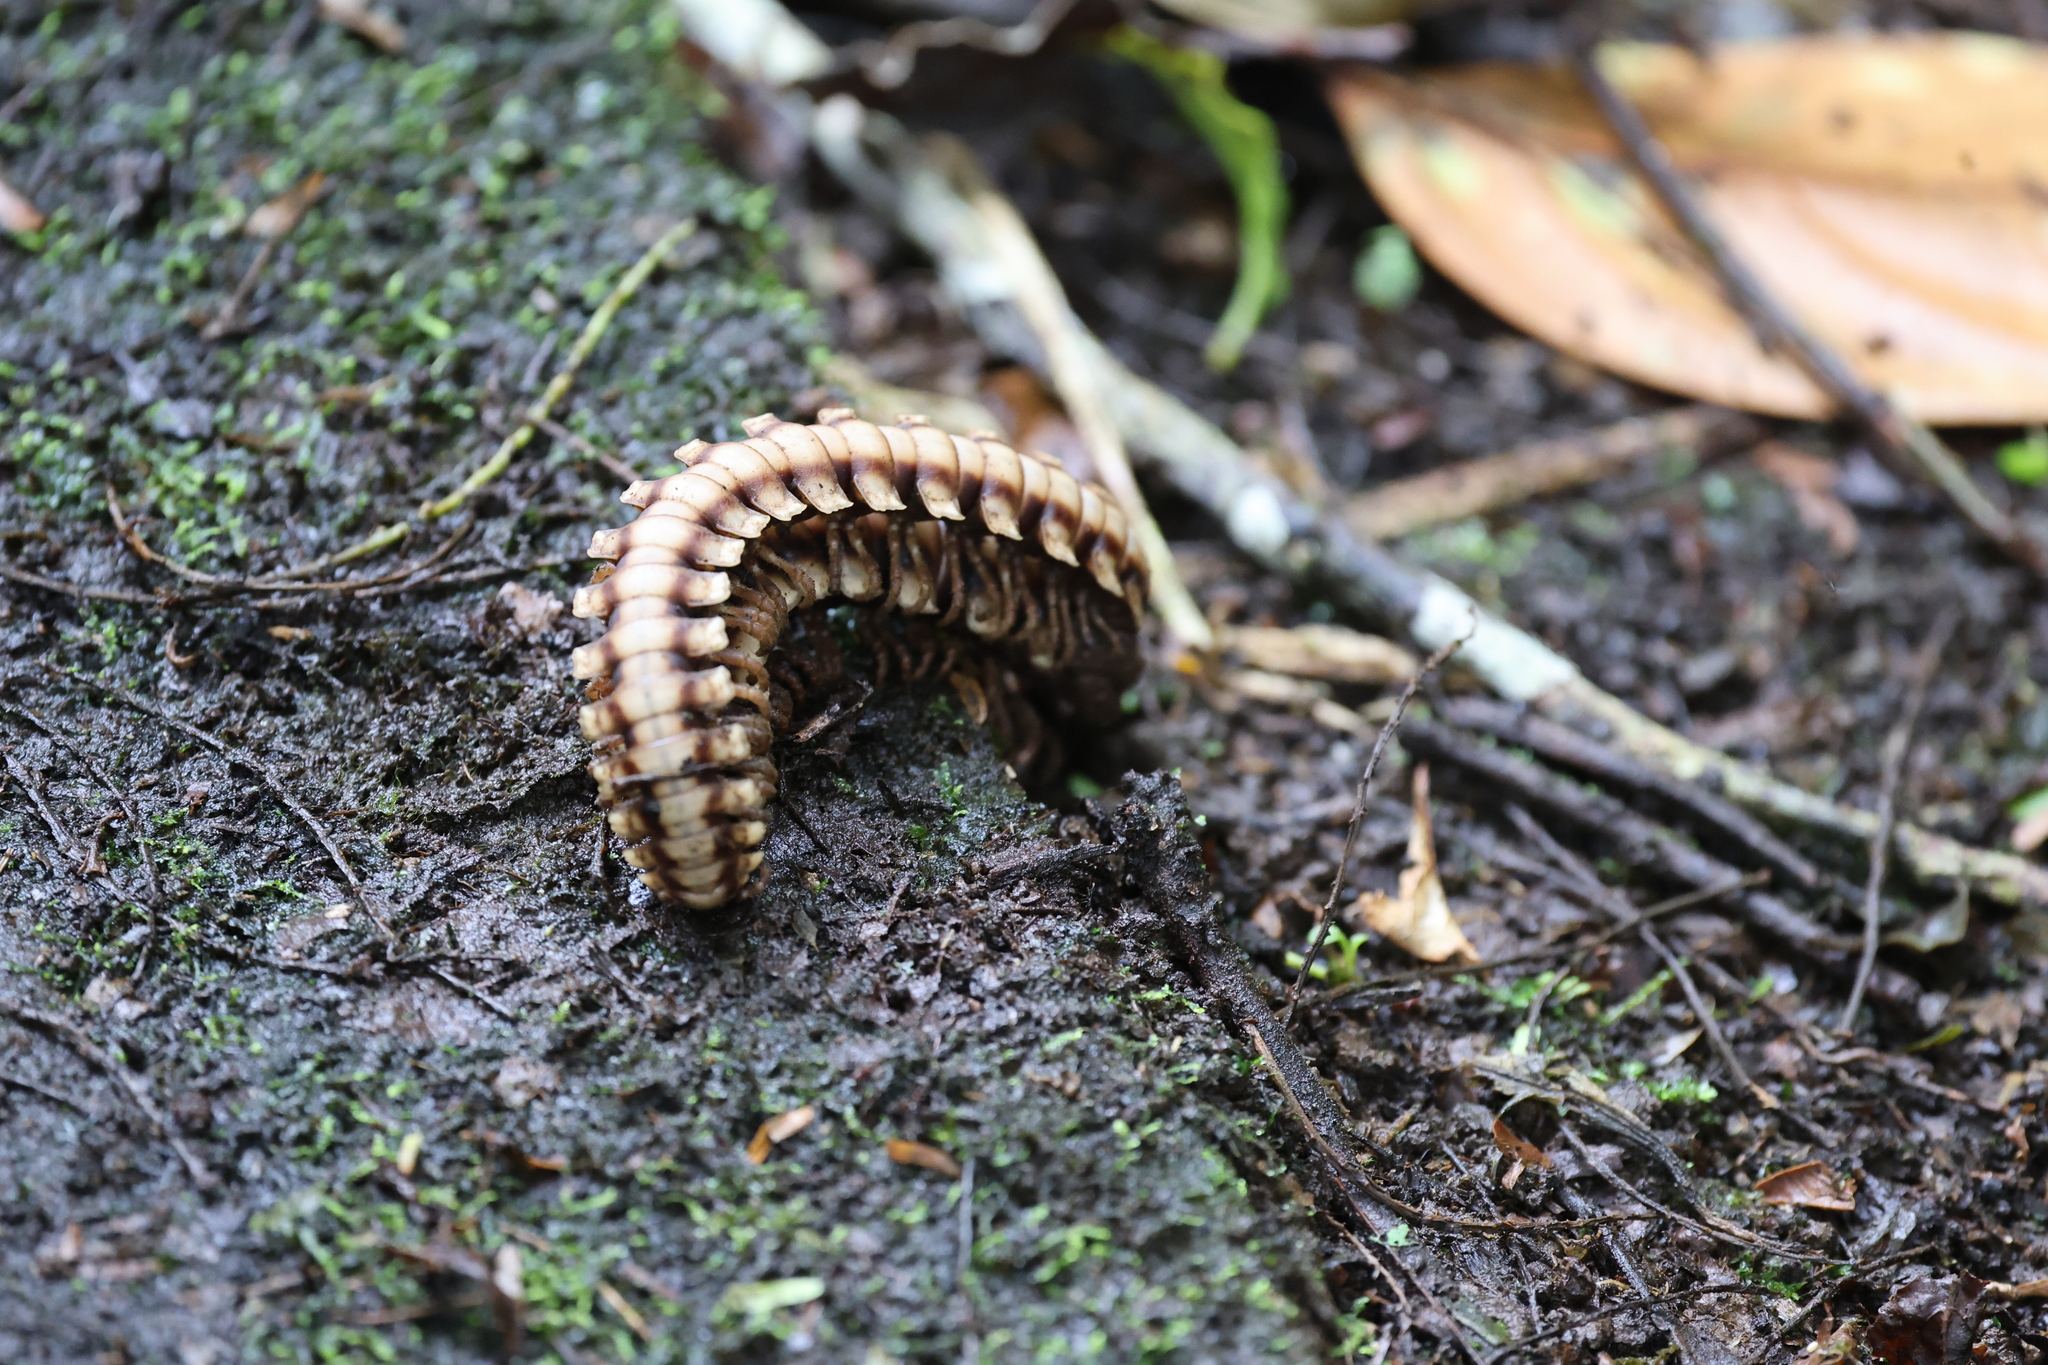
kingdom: Animalia
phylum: Arthropoda
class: Diplopoda
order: Polydesmida
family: Platyrhacidae
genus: Nyssodesmus
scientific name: Nyssodesmus python
